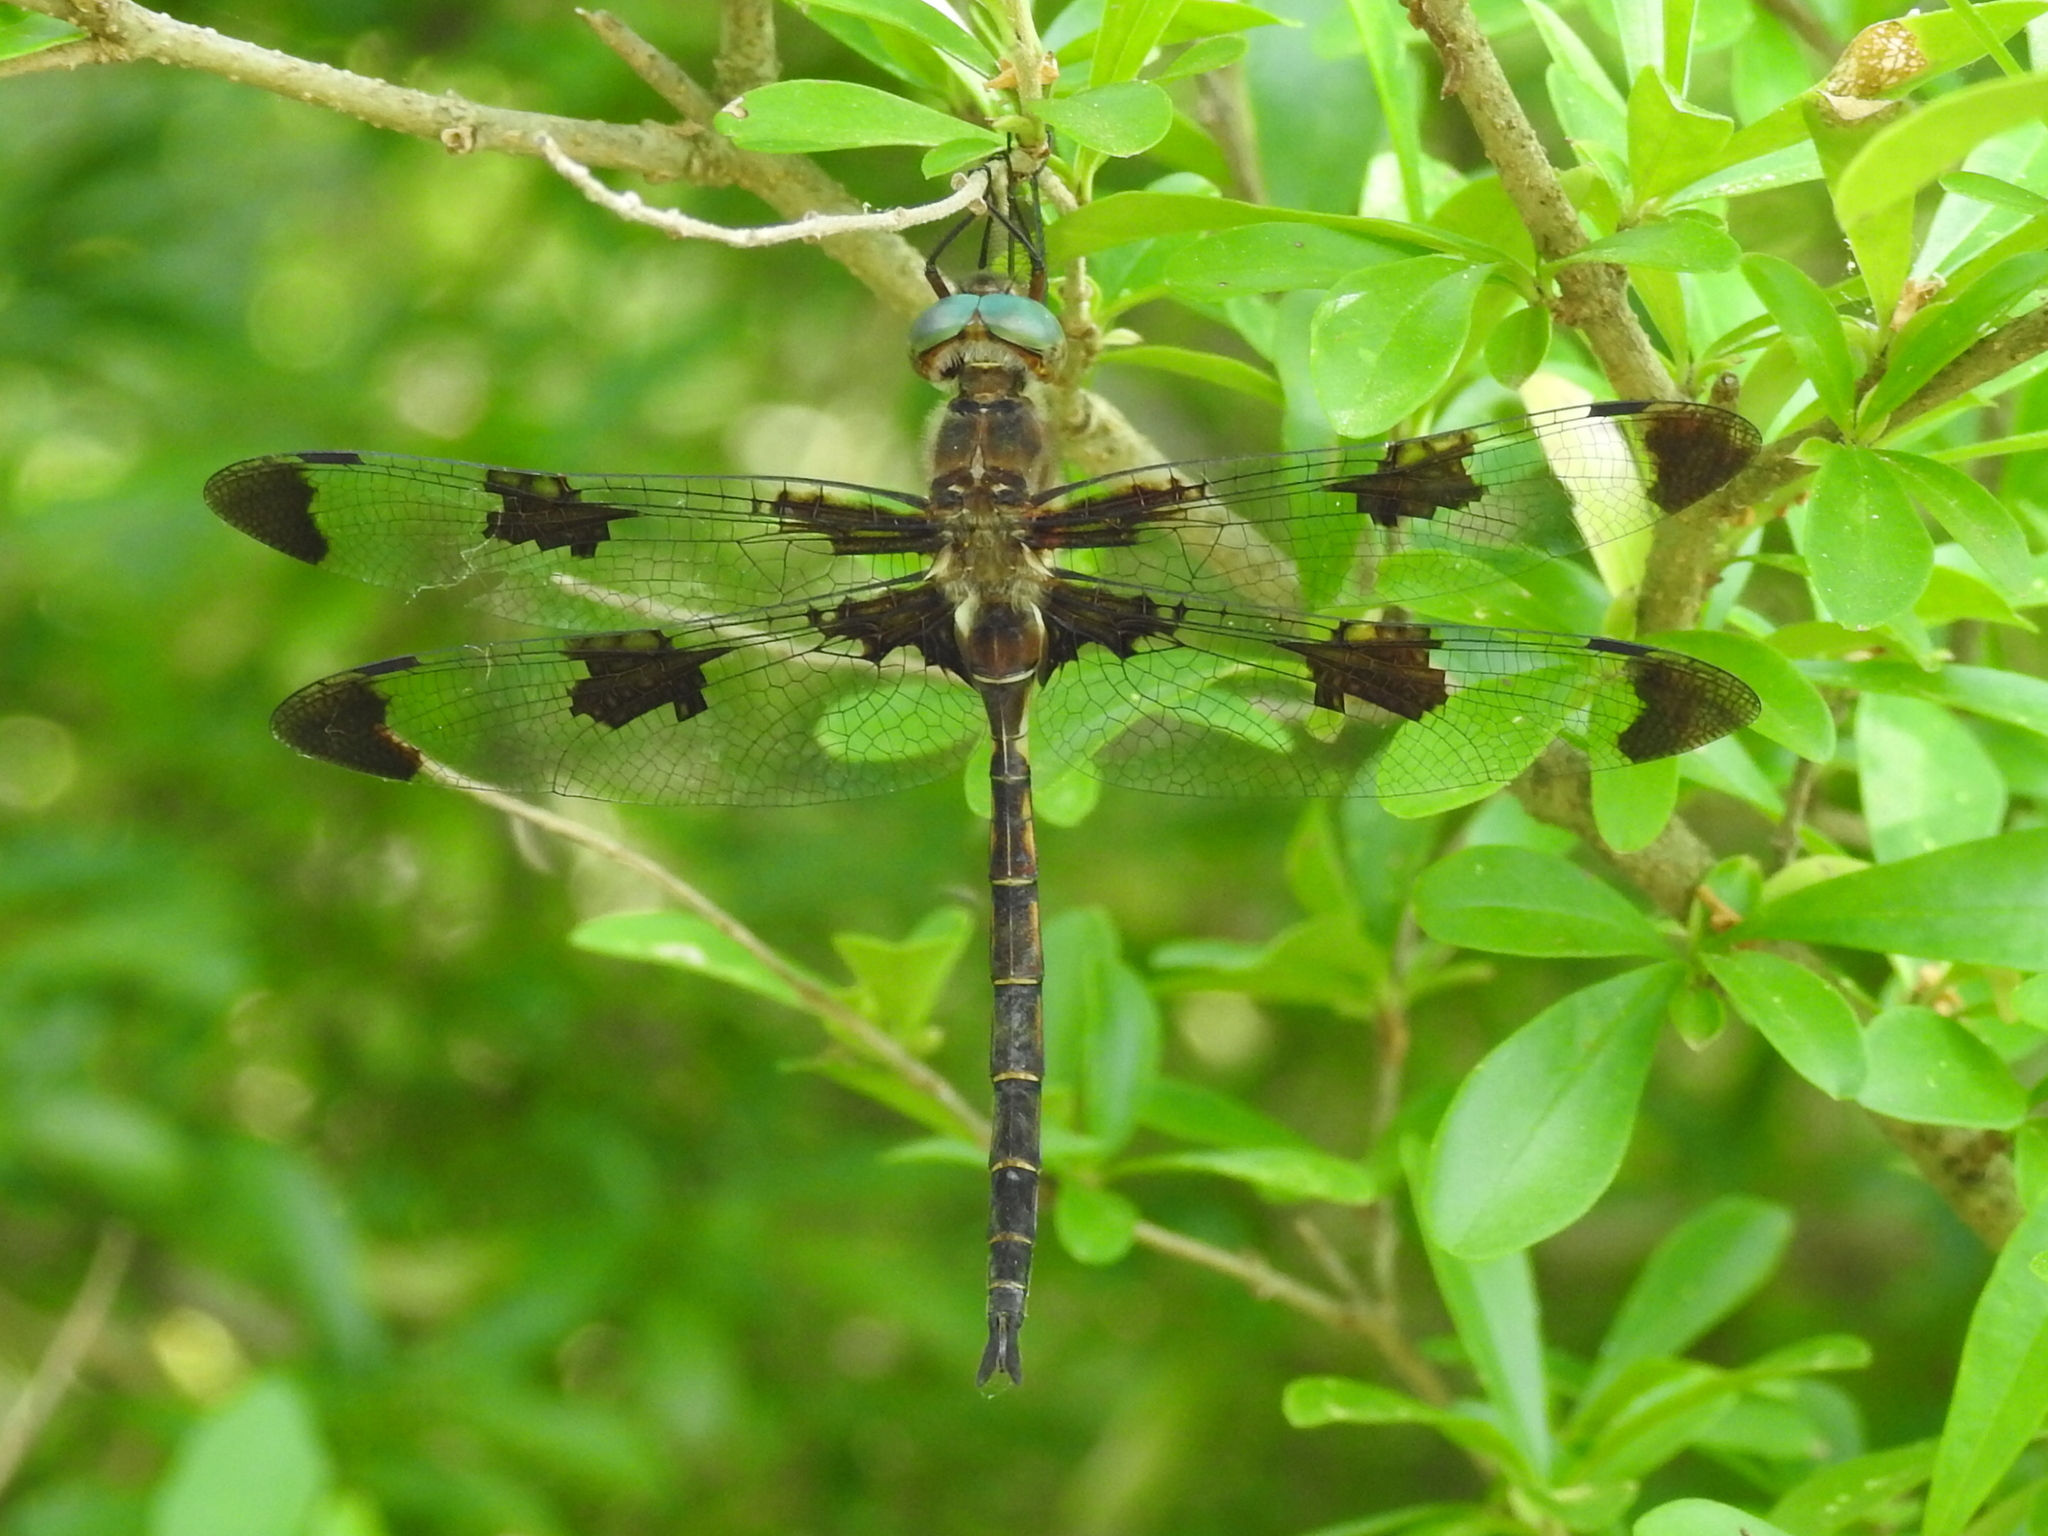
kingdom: Animalia
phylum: Arthropoda
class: Insecta
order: Odonata
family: Corduliidae
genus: Epitheca
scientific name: Epitheca princeps
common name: Prince baskettail
